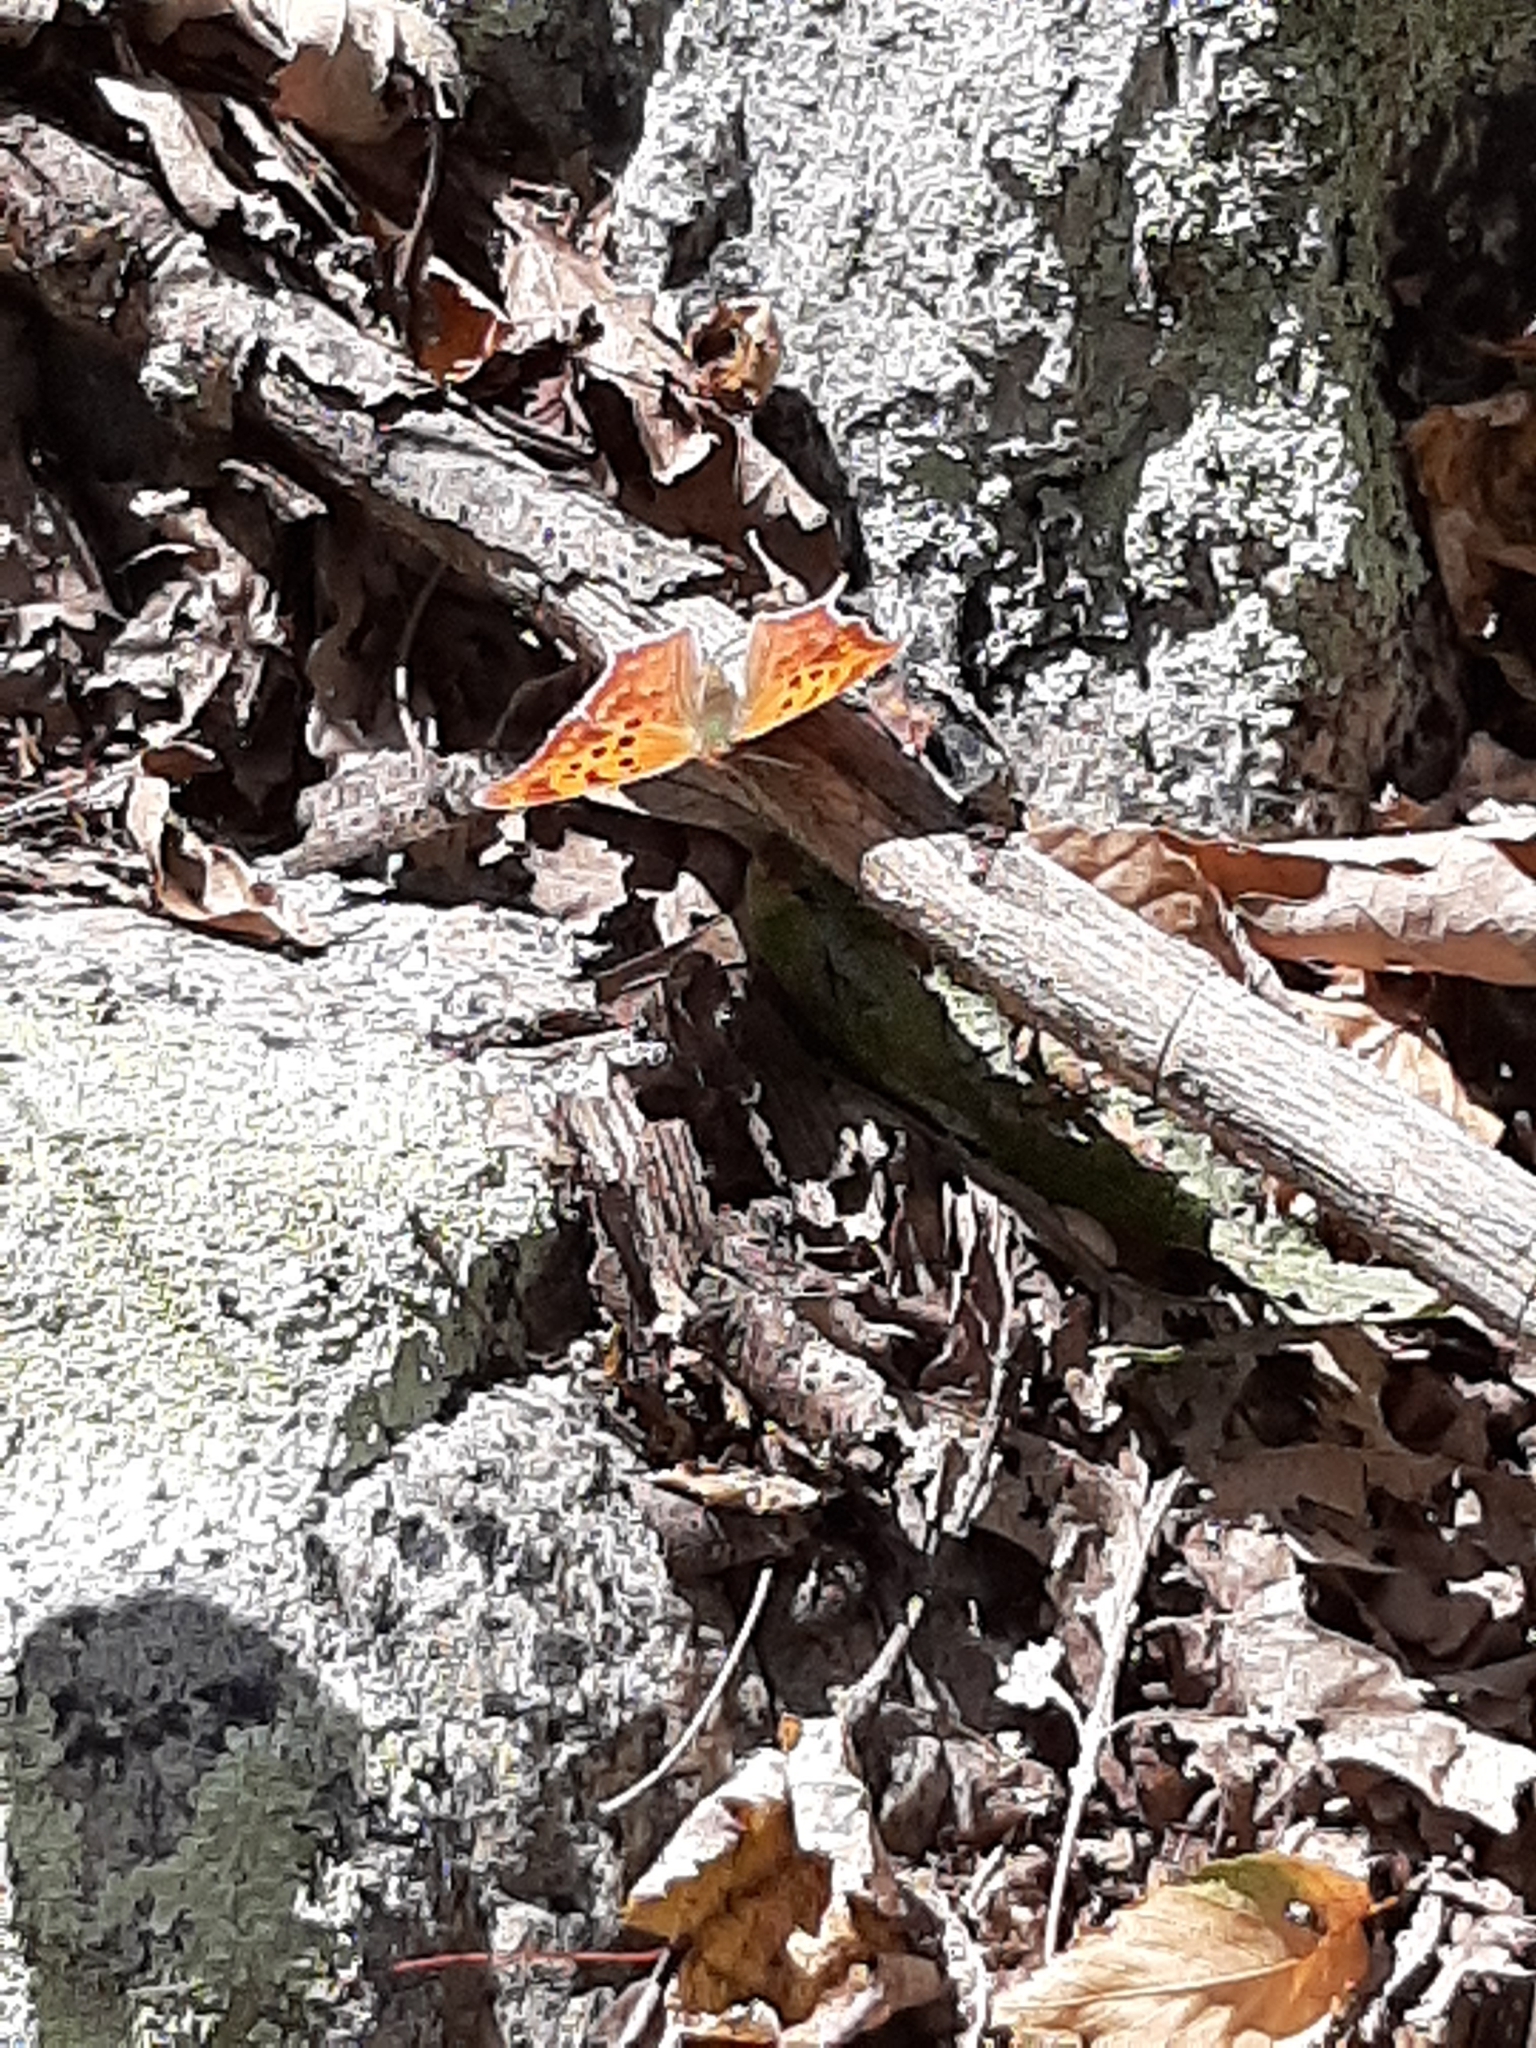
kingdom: Animalia
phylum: Arthropoda
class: Insecta
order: Lepidoptera
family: Nymphalidae
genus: Polygonia
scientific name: Polygonia interrogationis
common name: Question mark
